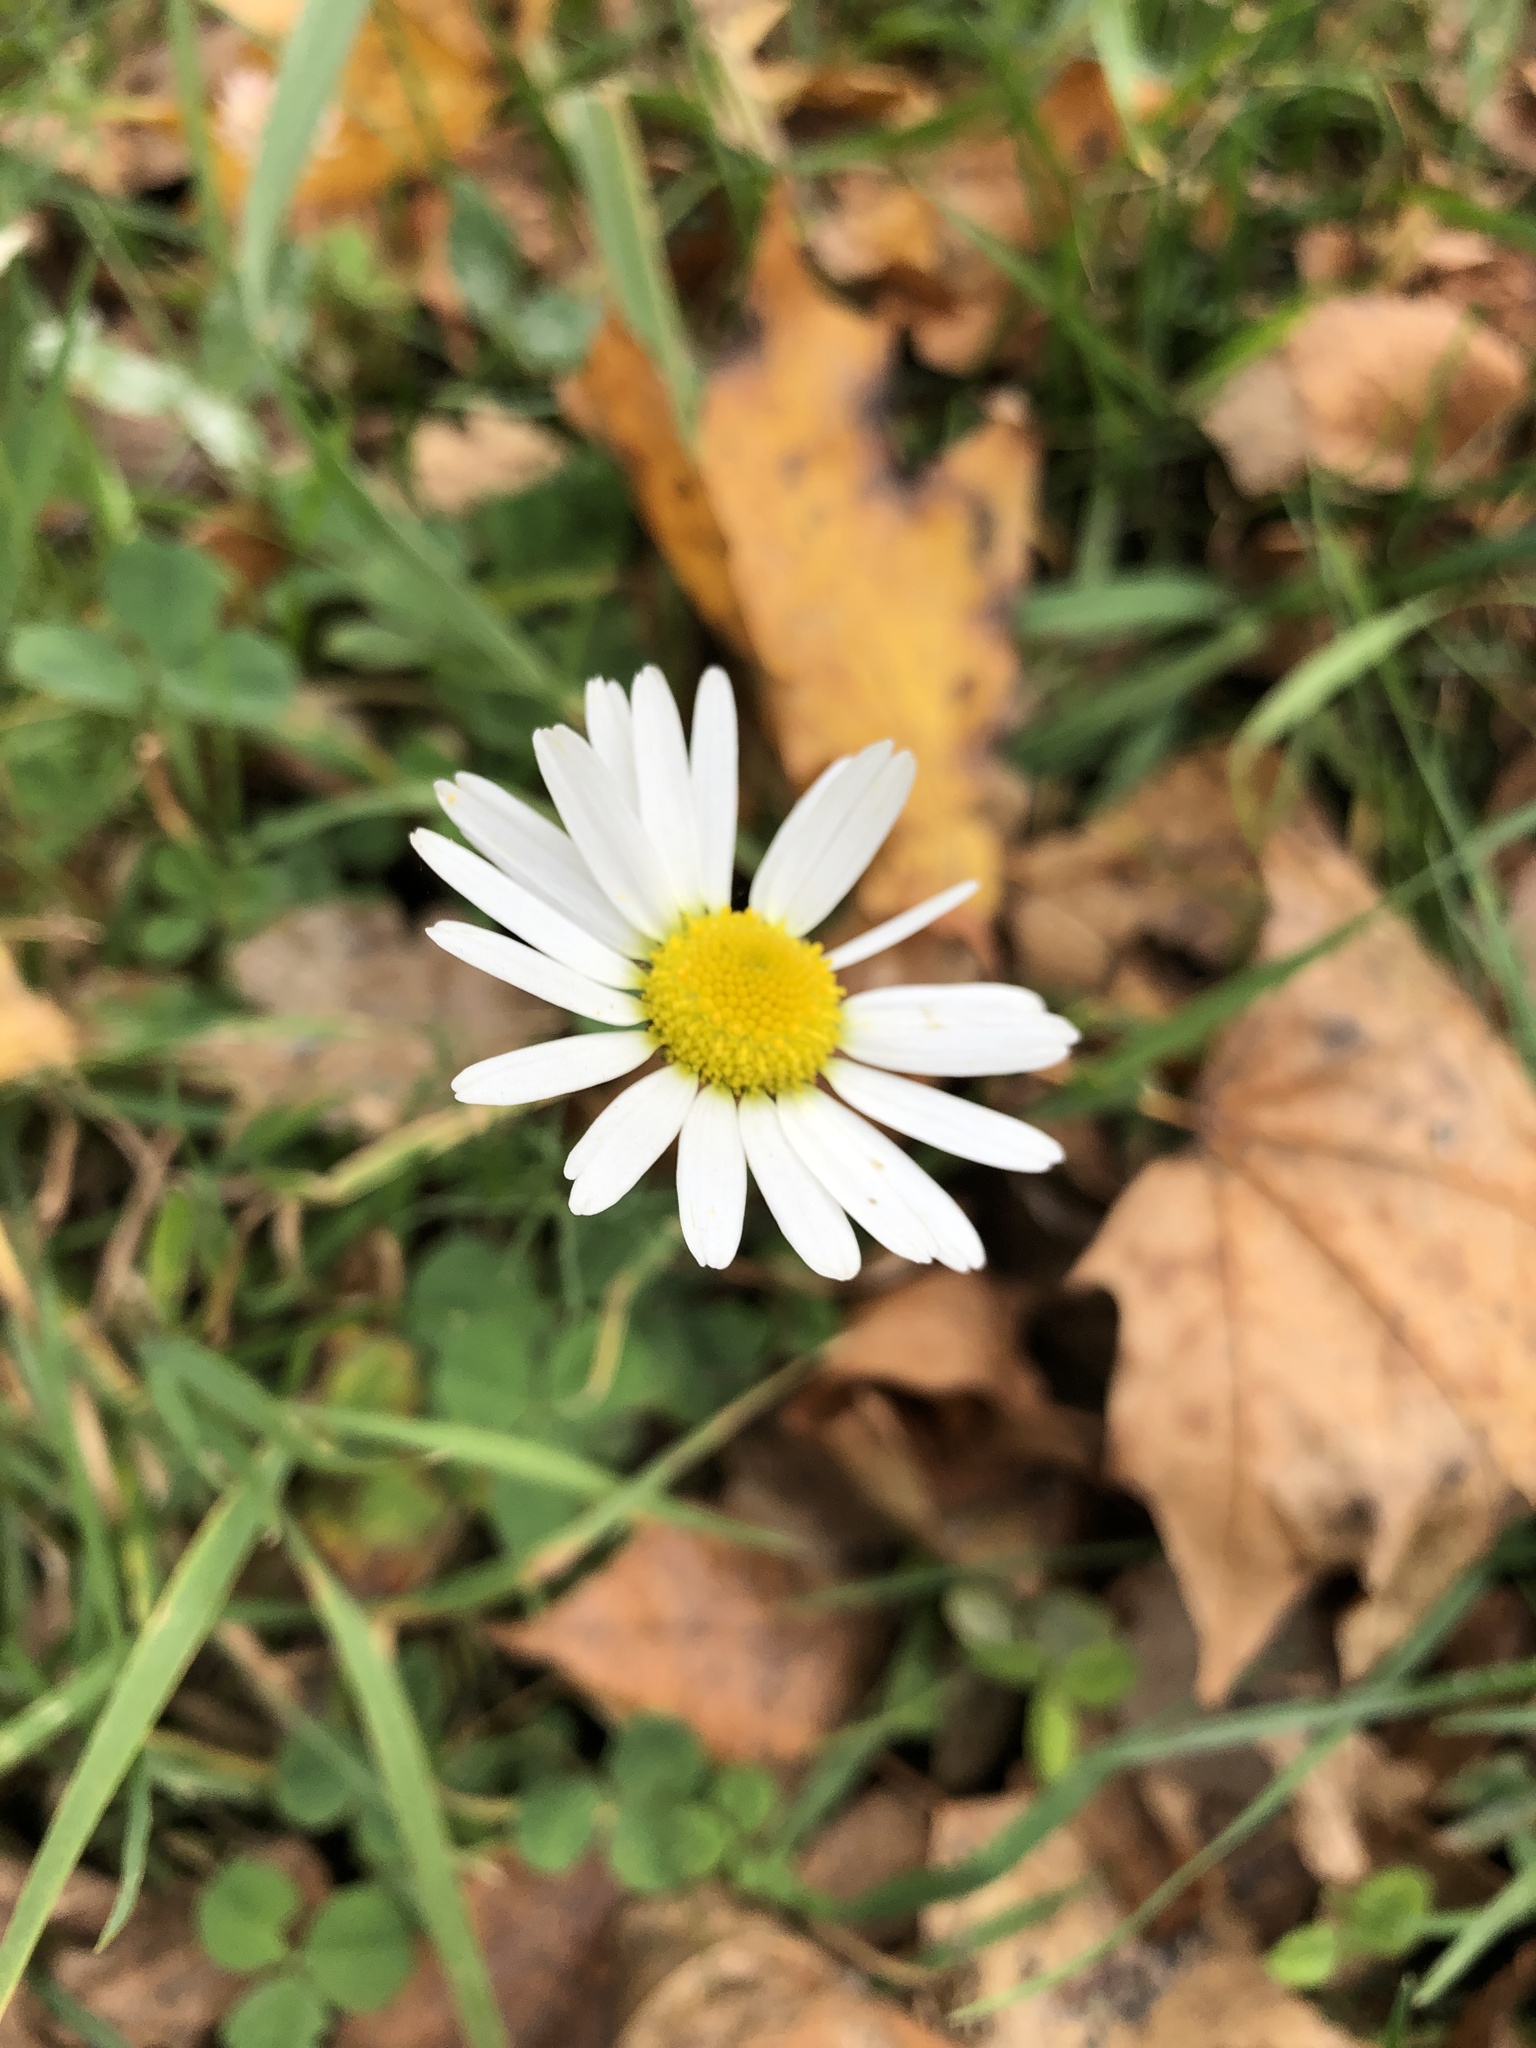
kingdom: Plantae
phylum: Tracheophyta
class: Magnoliopsida
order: Asterales
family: Asteraceae
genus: Tripleurospermum
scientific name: Tripleurospermum inodorum
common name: Scentless mayweed
